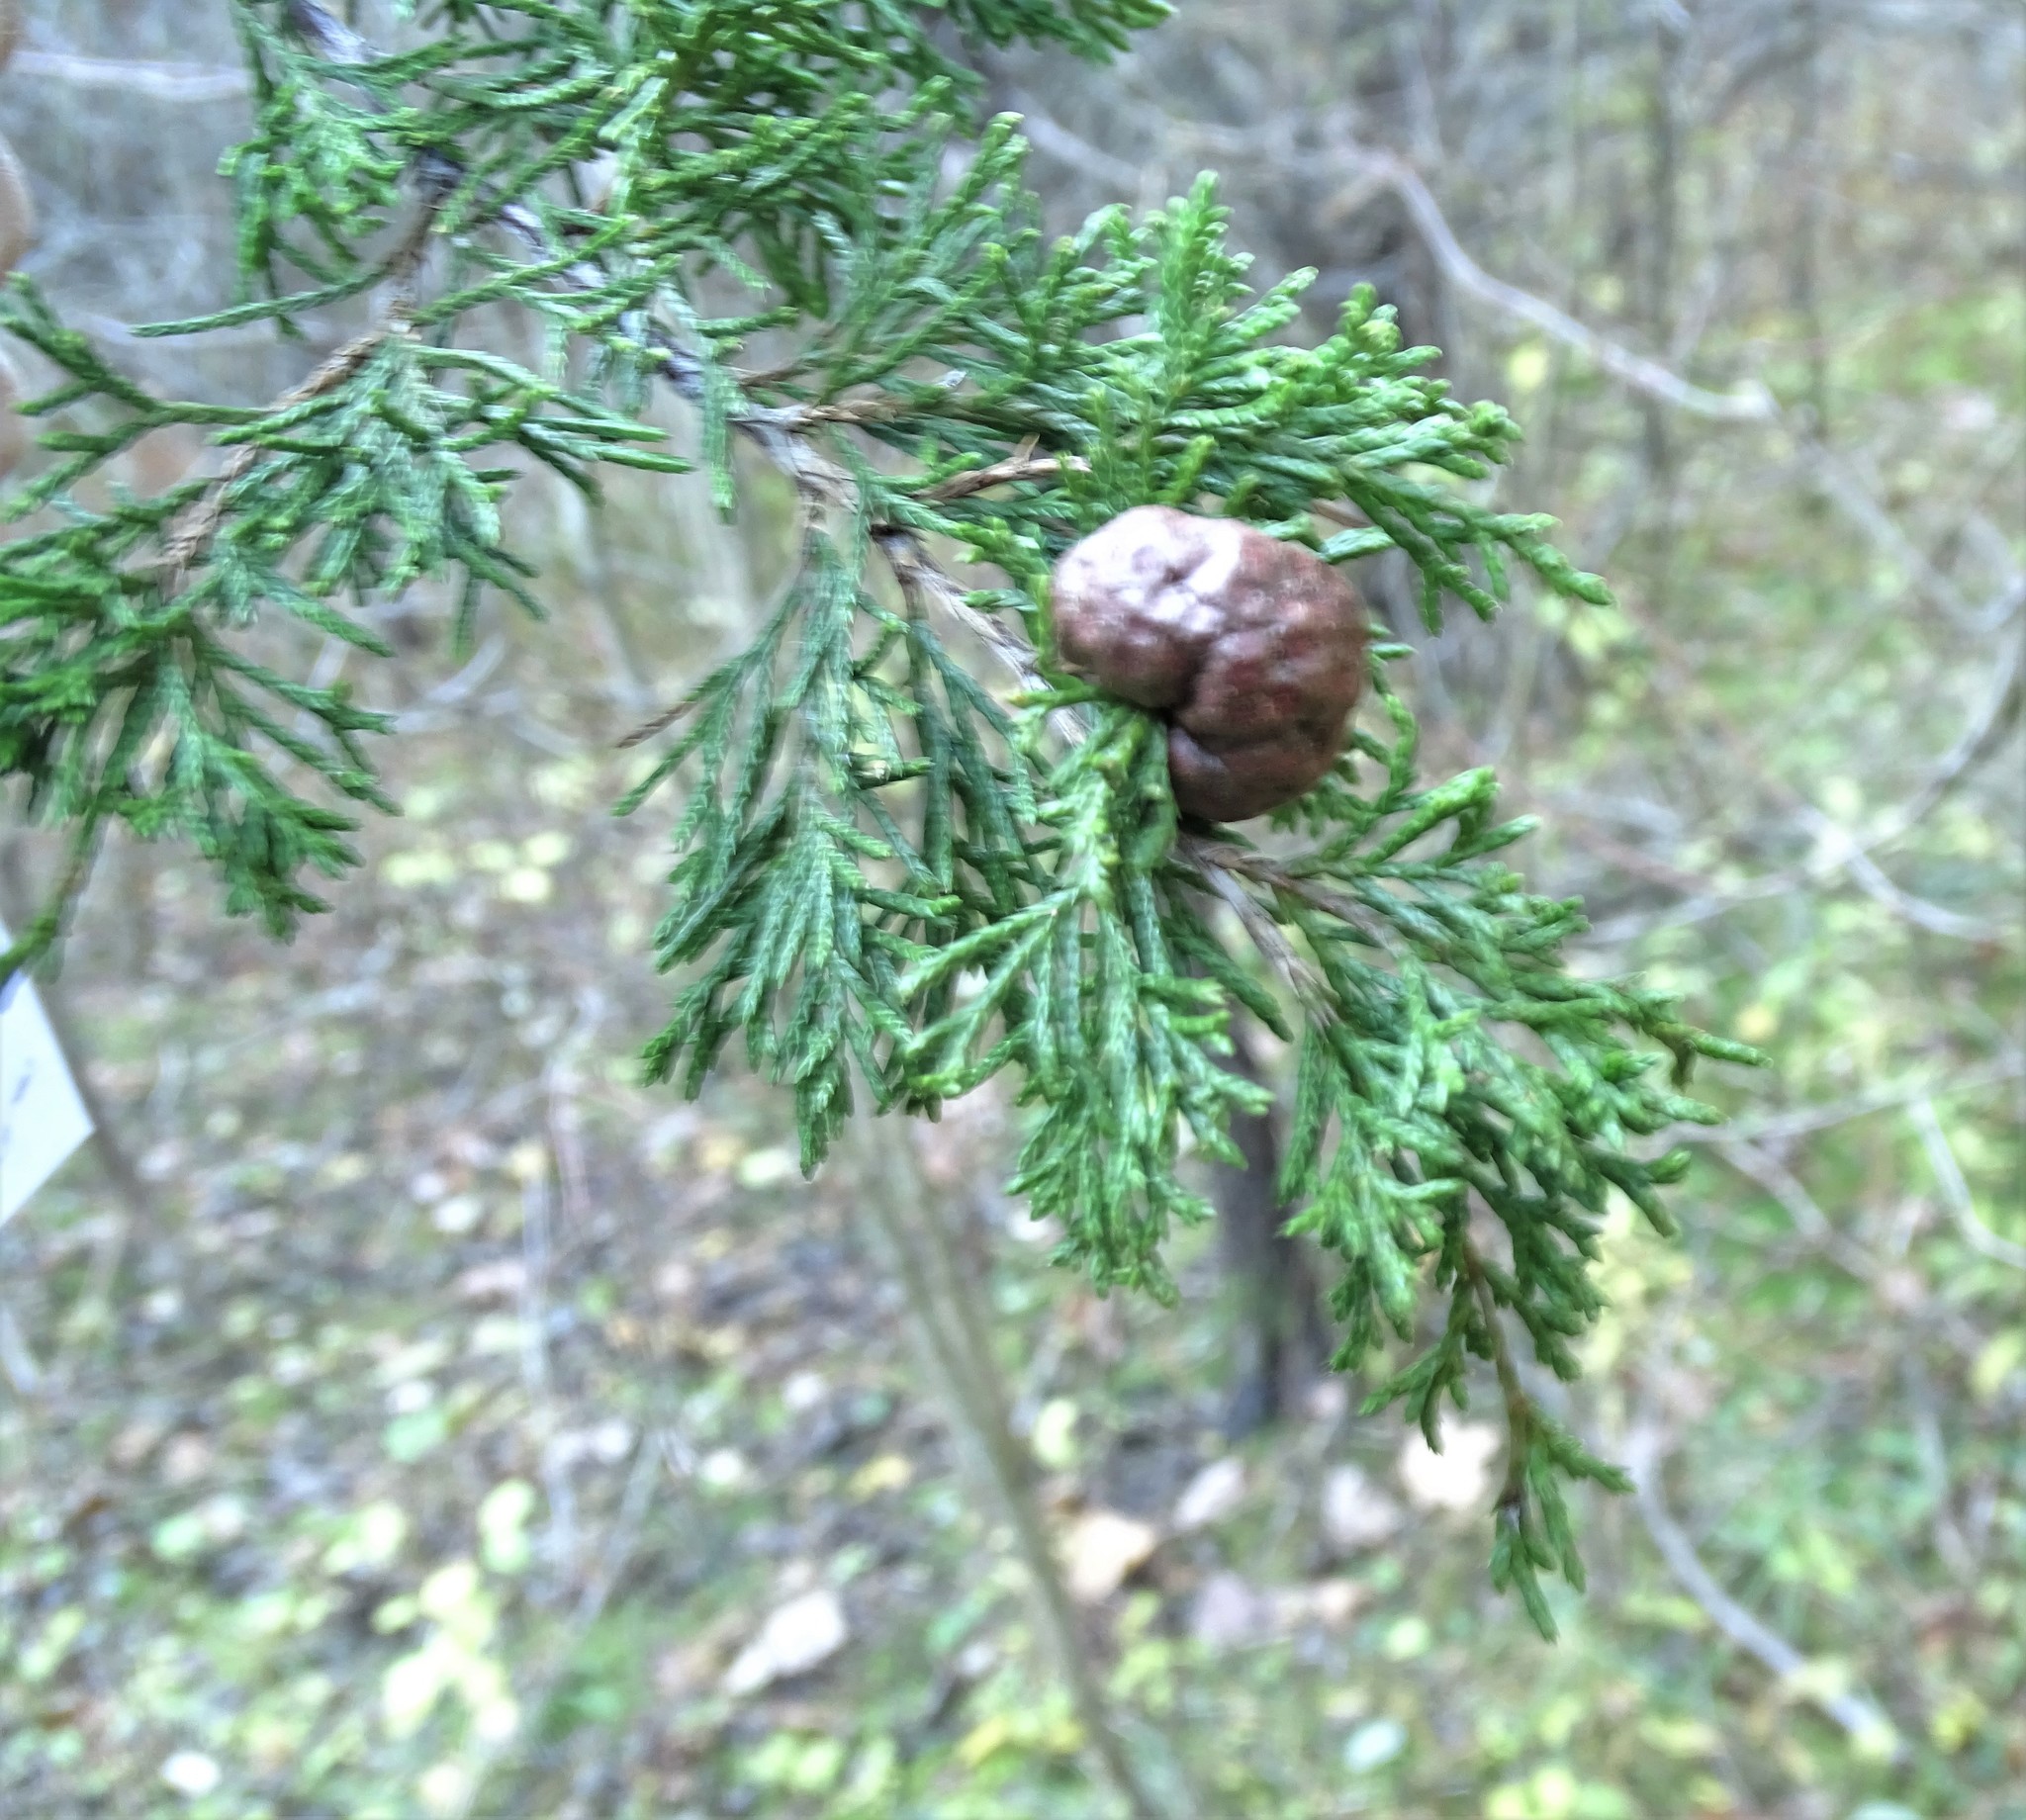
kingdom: Fungi
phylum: Basidiomycota
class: Pucciniomycetes
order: Pucciniales
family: Gymnosporangiaceae
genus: Gymnosporangium
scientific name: Gymnosporangium juniperi-virginianae
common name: Juniper-apple rust
